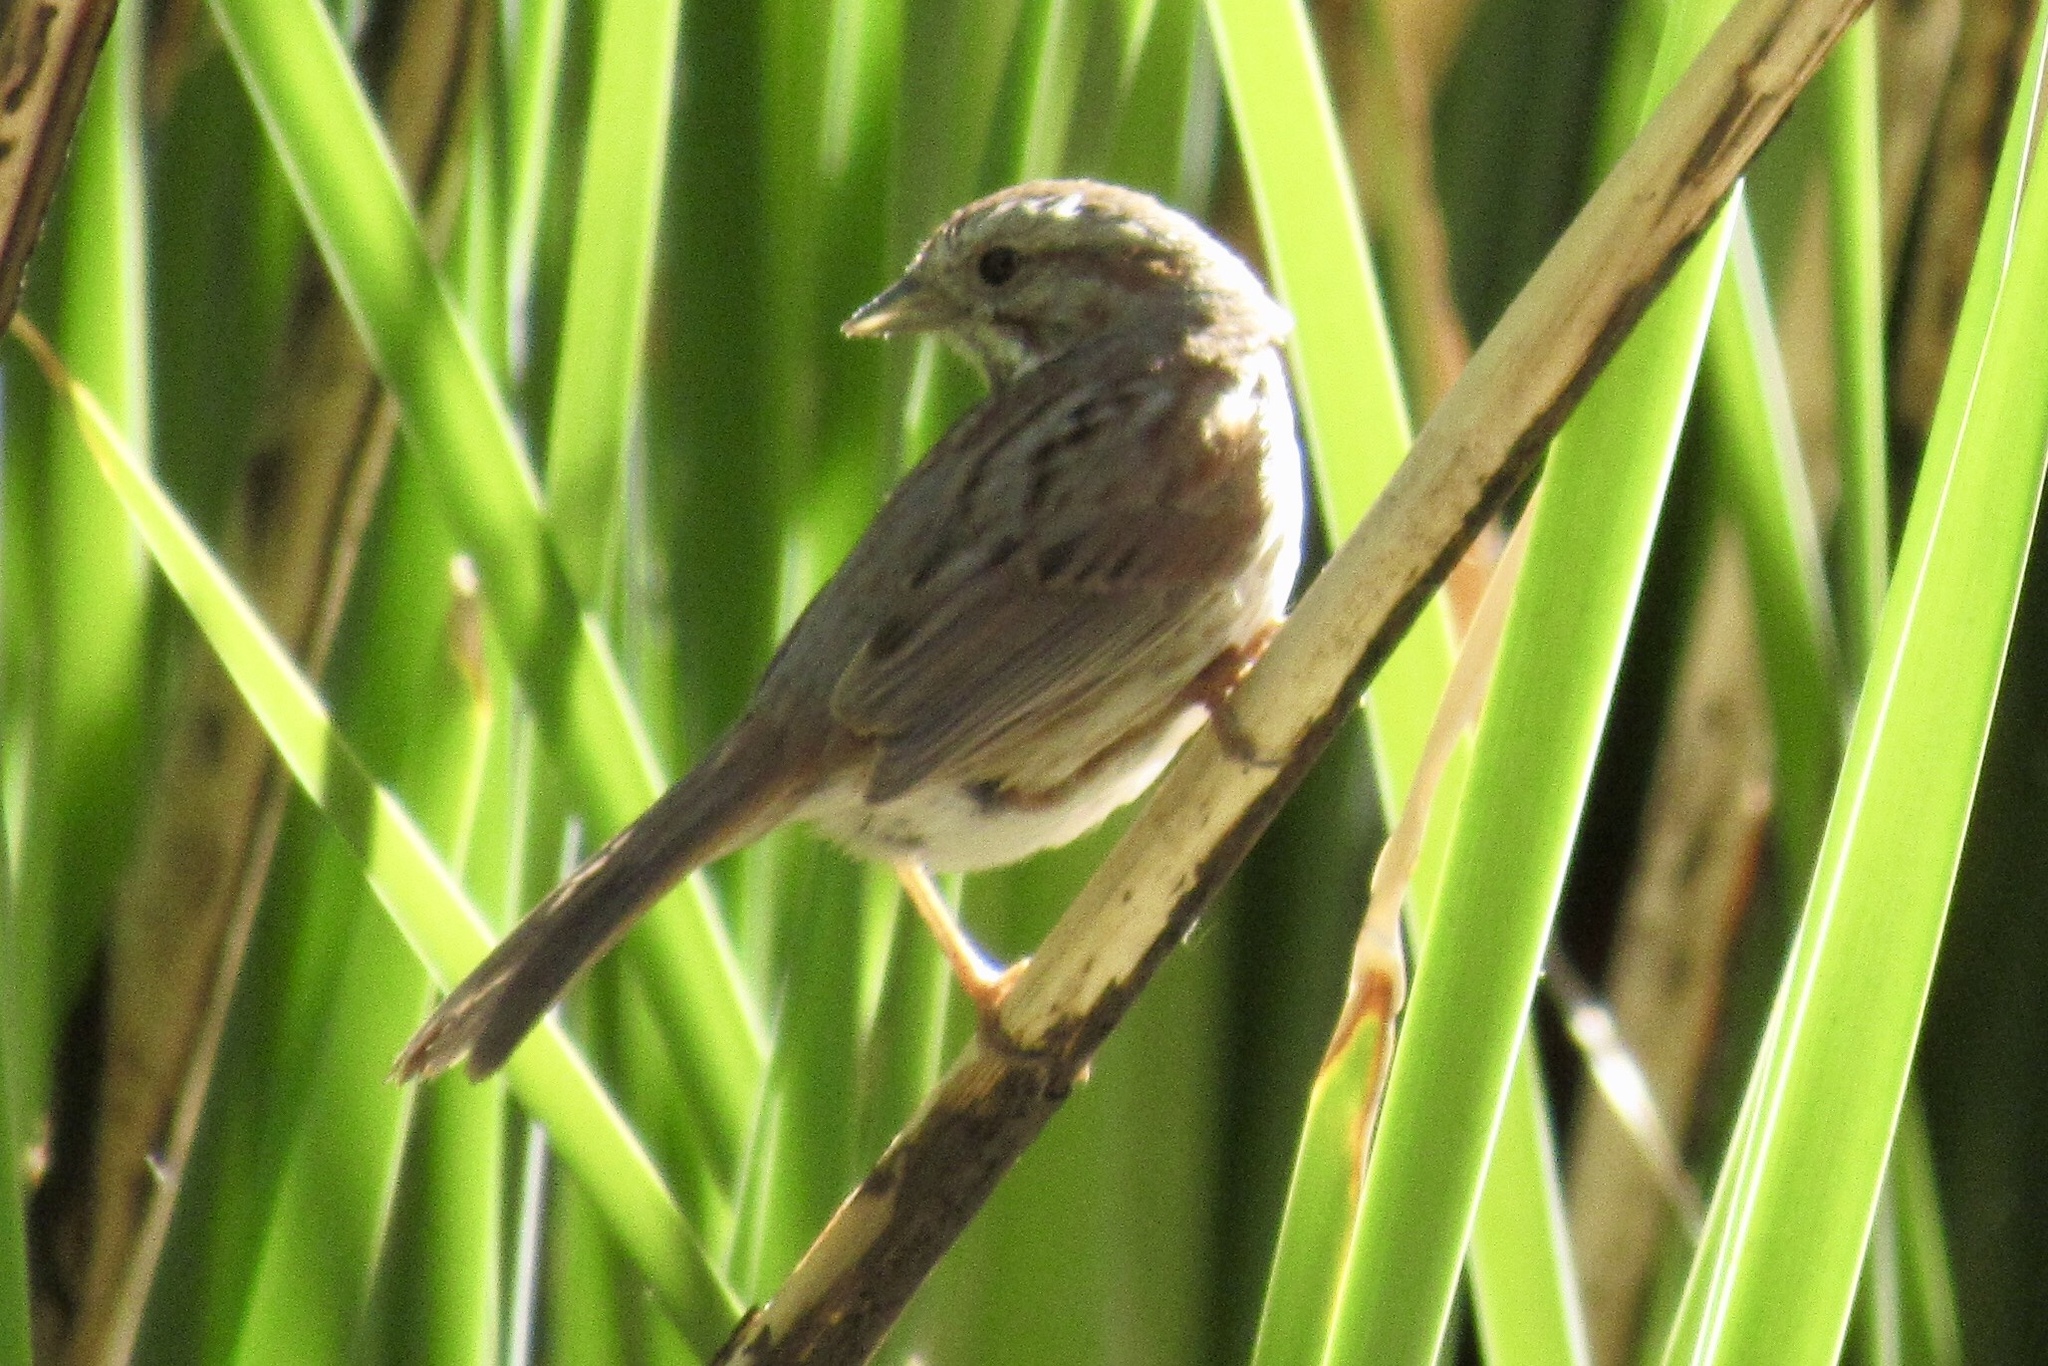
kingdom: Animalia
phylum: Chordata
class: Aves
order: Passeriformes
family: Passerellidae
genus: Melospiza
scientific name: Melospiza melodia
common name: Song sparrow
